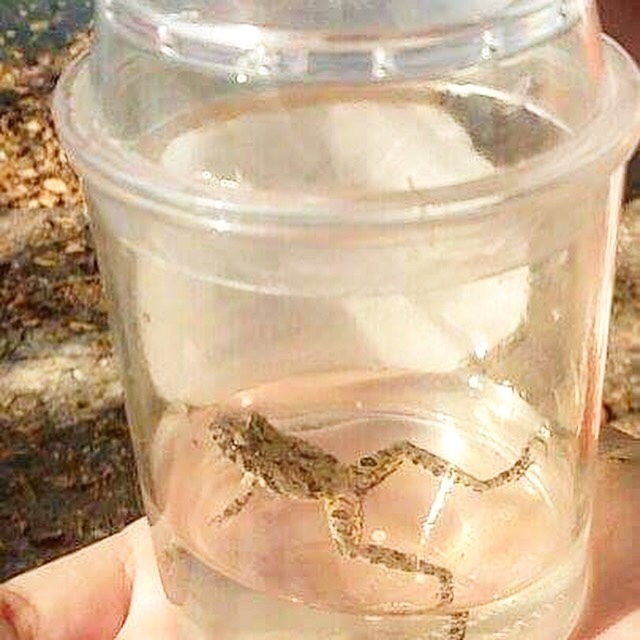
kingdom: Animalia
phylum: Chordata
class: Amphibia
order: Anura
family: Hylidae
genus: Acris
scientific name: Acris blanchardi
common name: Blanchard's cricket frog
